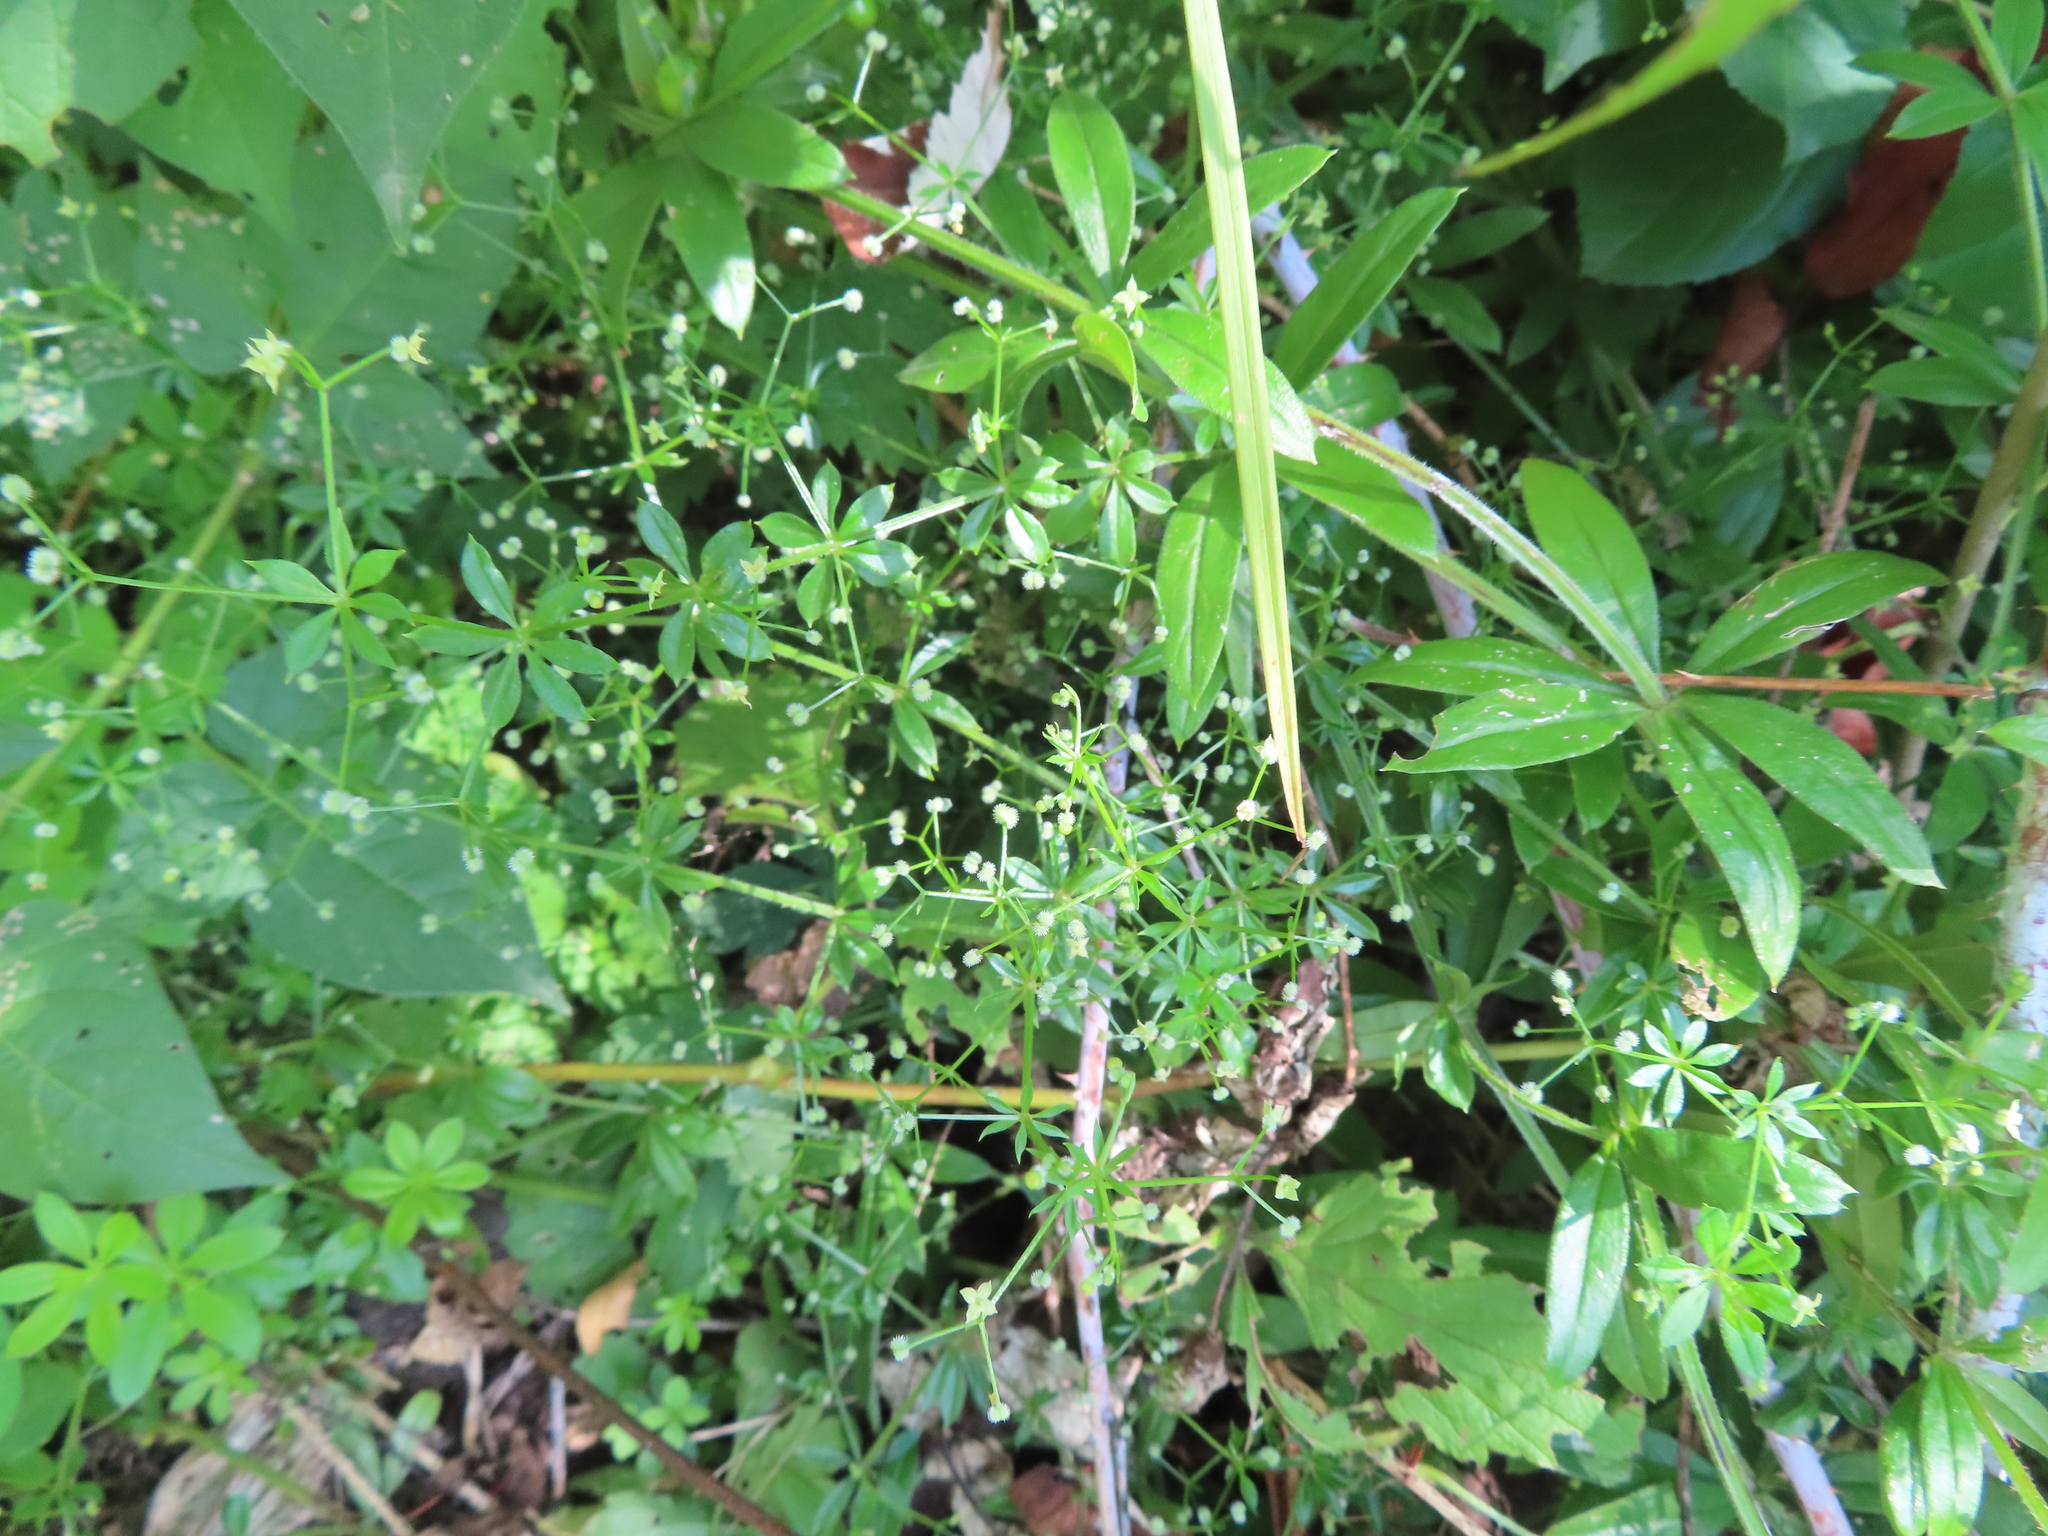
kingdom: Plantae
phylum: Tracheophyta
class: Magnoliopsida
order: Gentianales
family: Rubiaceae
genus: Galium
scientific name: Galium triflorum
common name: Fragrant bedstraw
